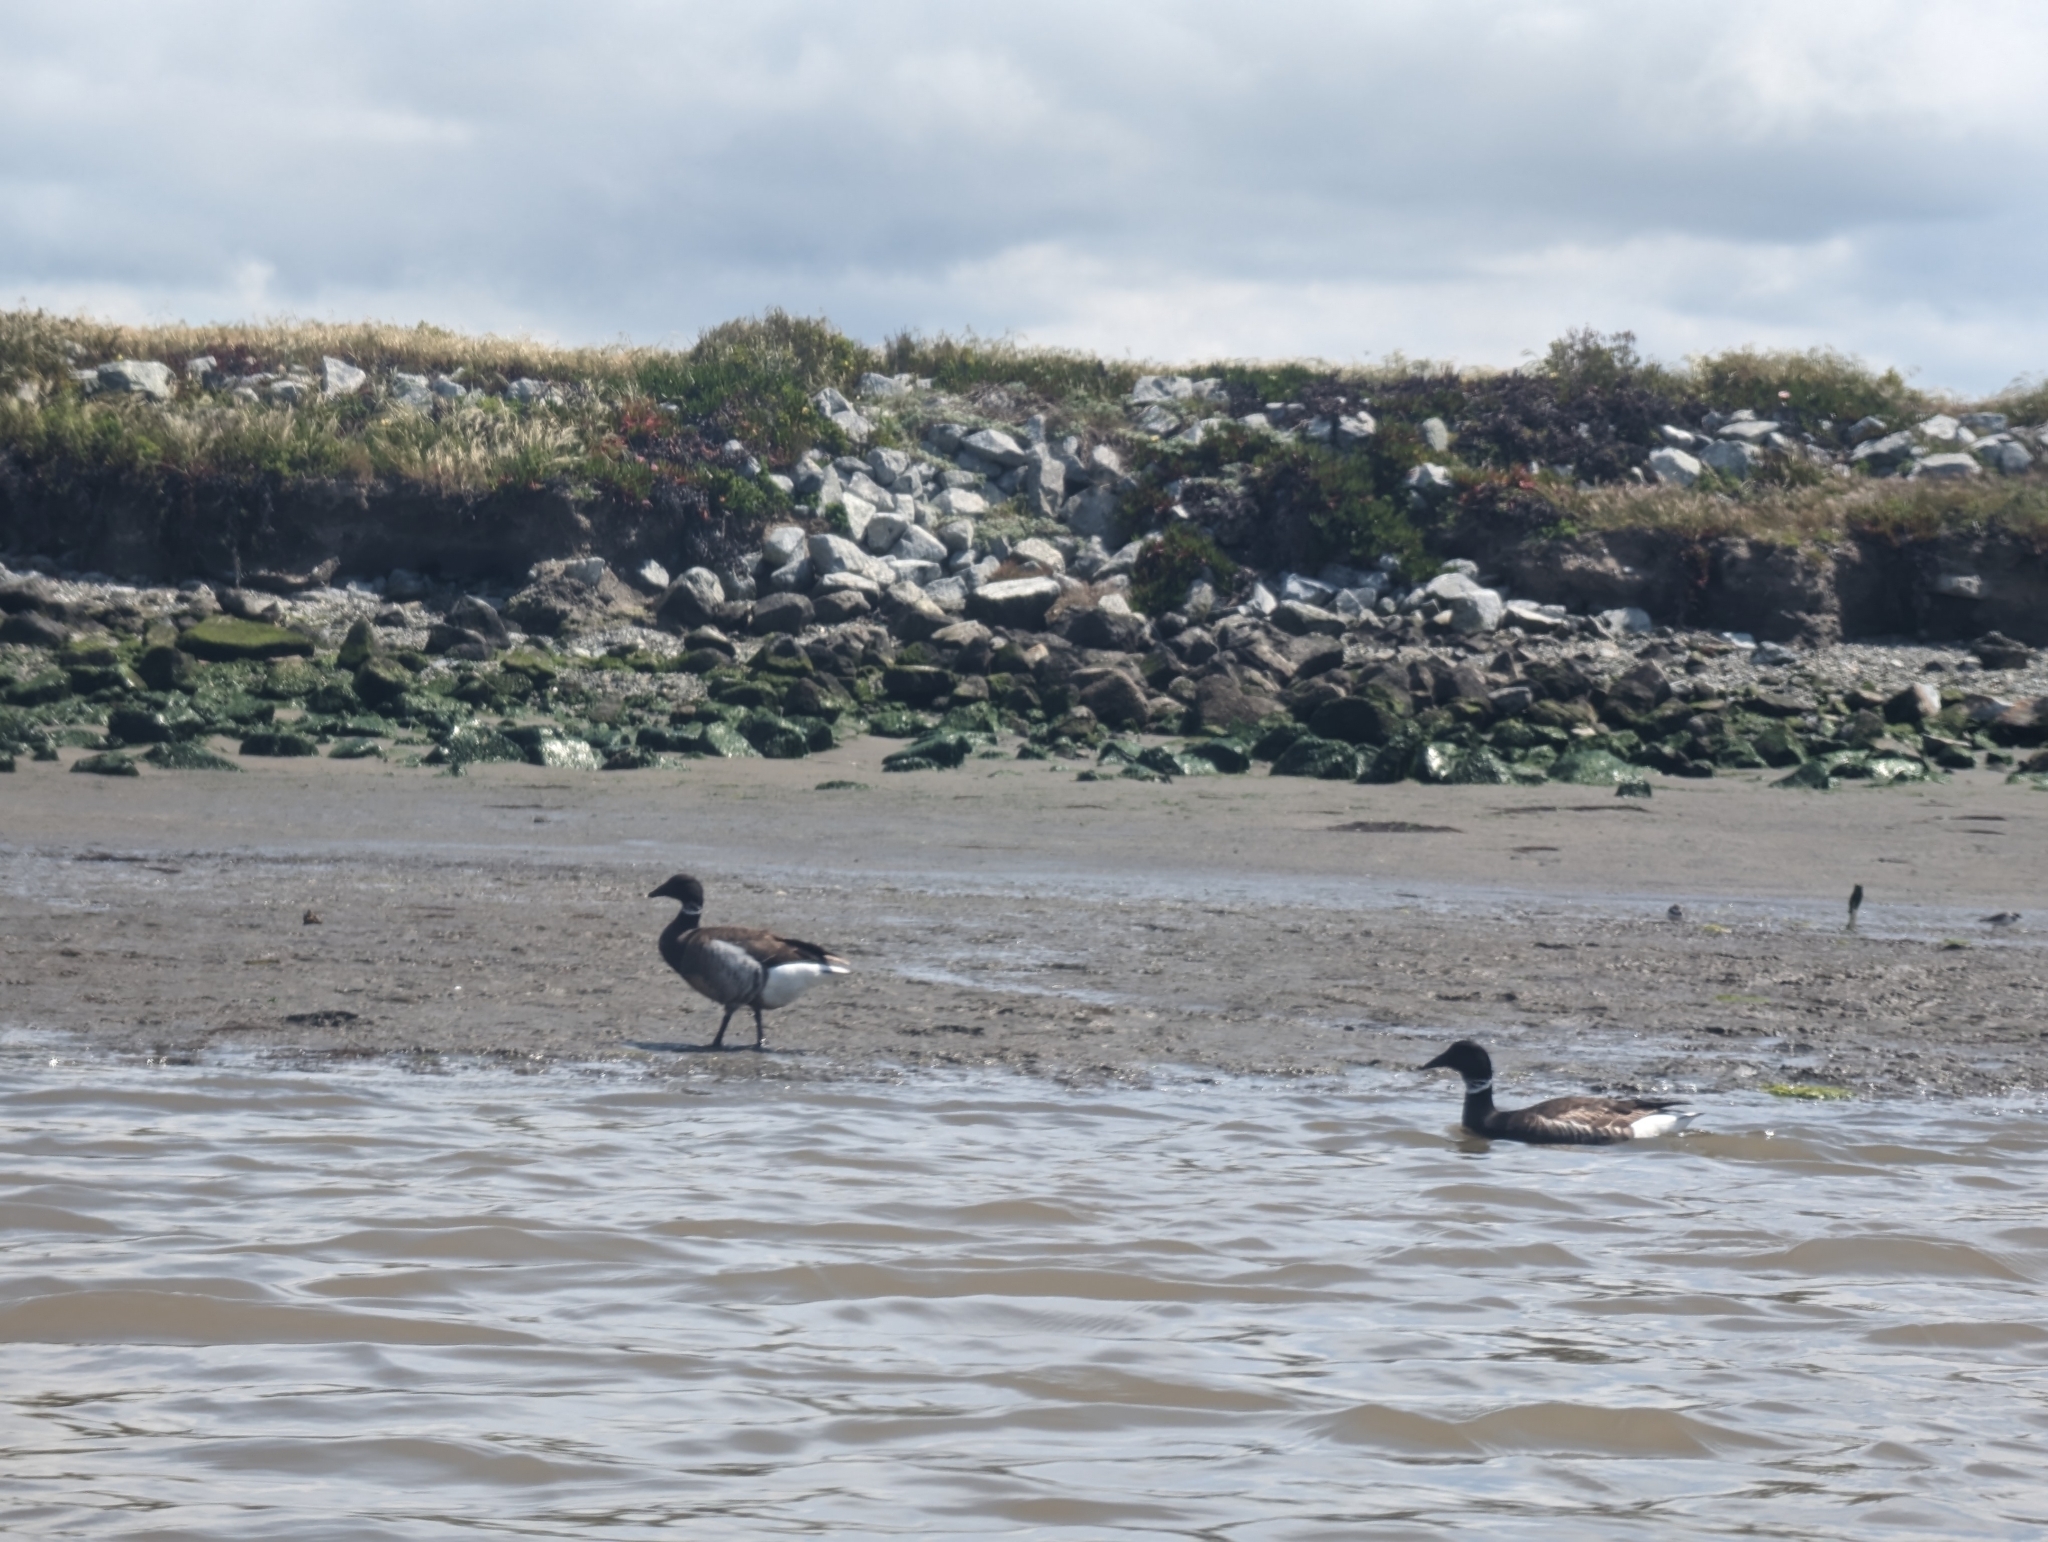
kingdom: Animalia
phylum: Chordata
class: Aves
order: Anseriformes
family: Anatidae
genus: Branta
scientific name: Branta bernicla
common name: Brant goose
